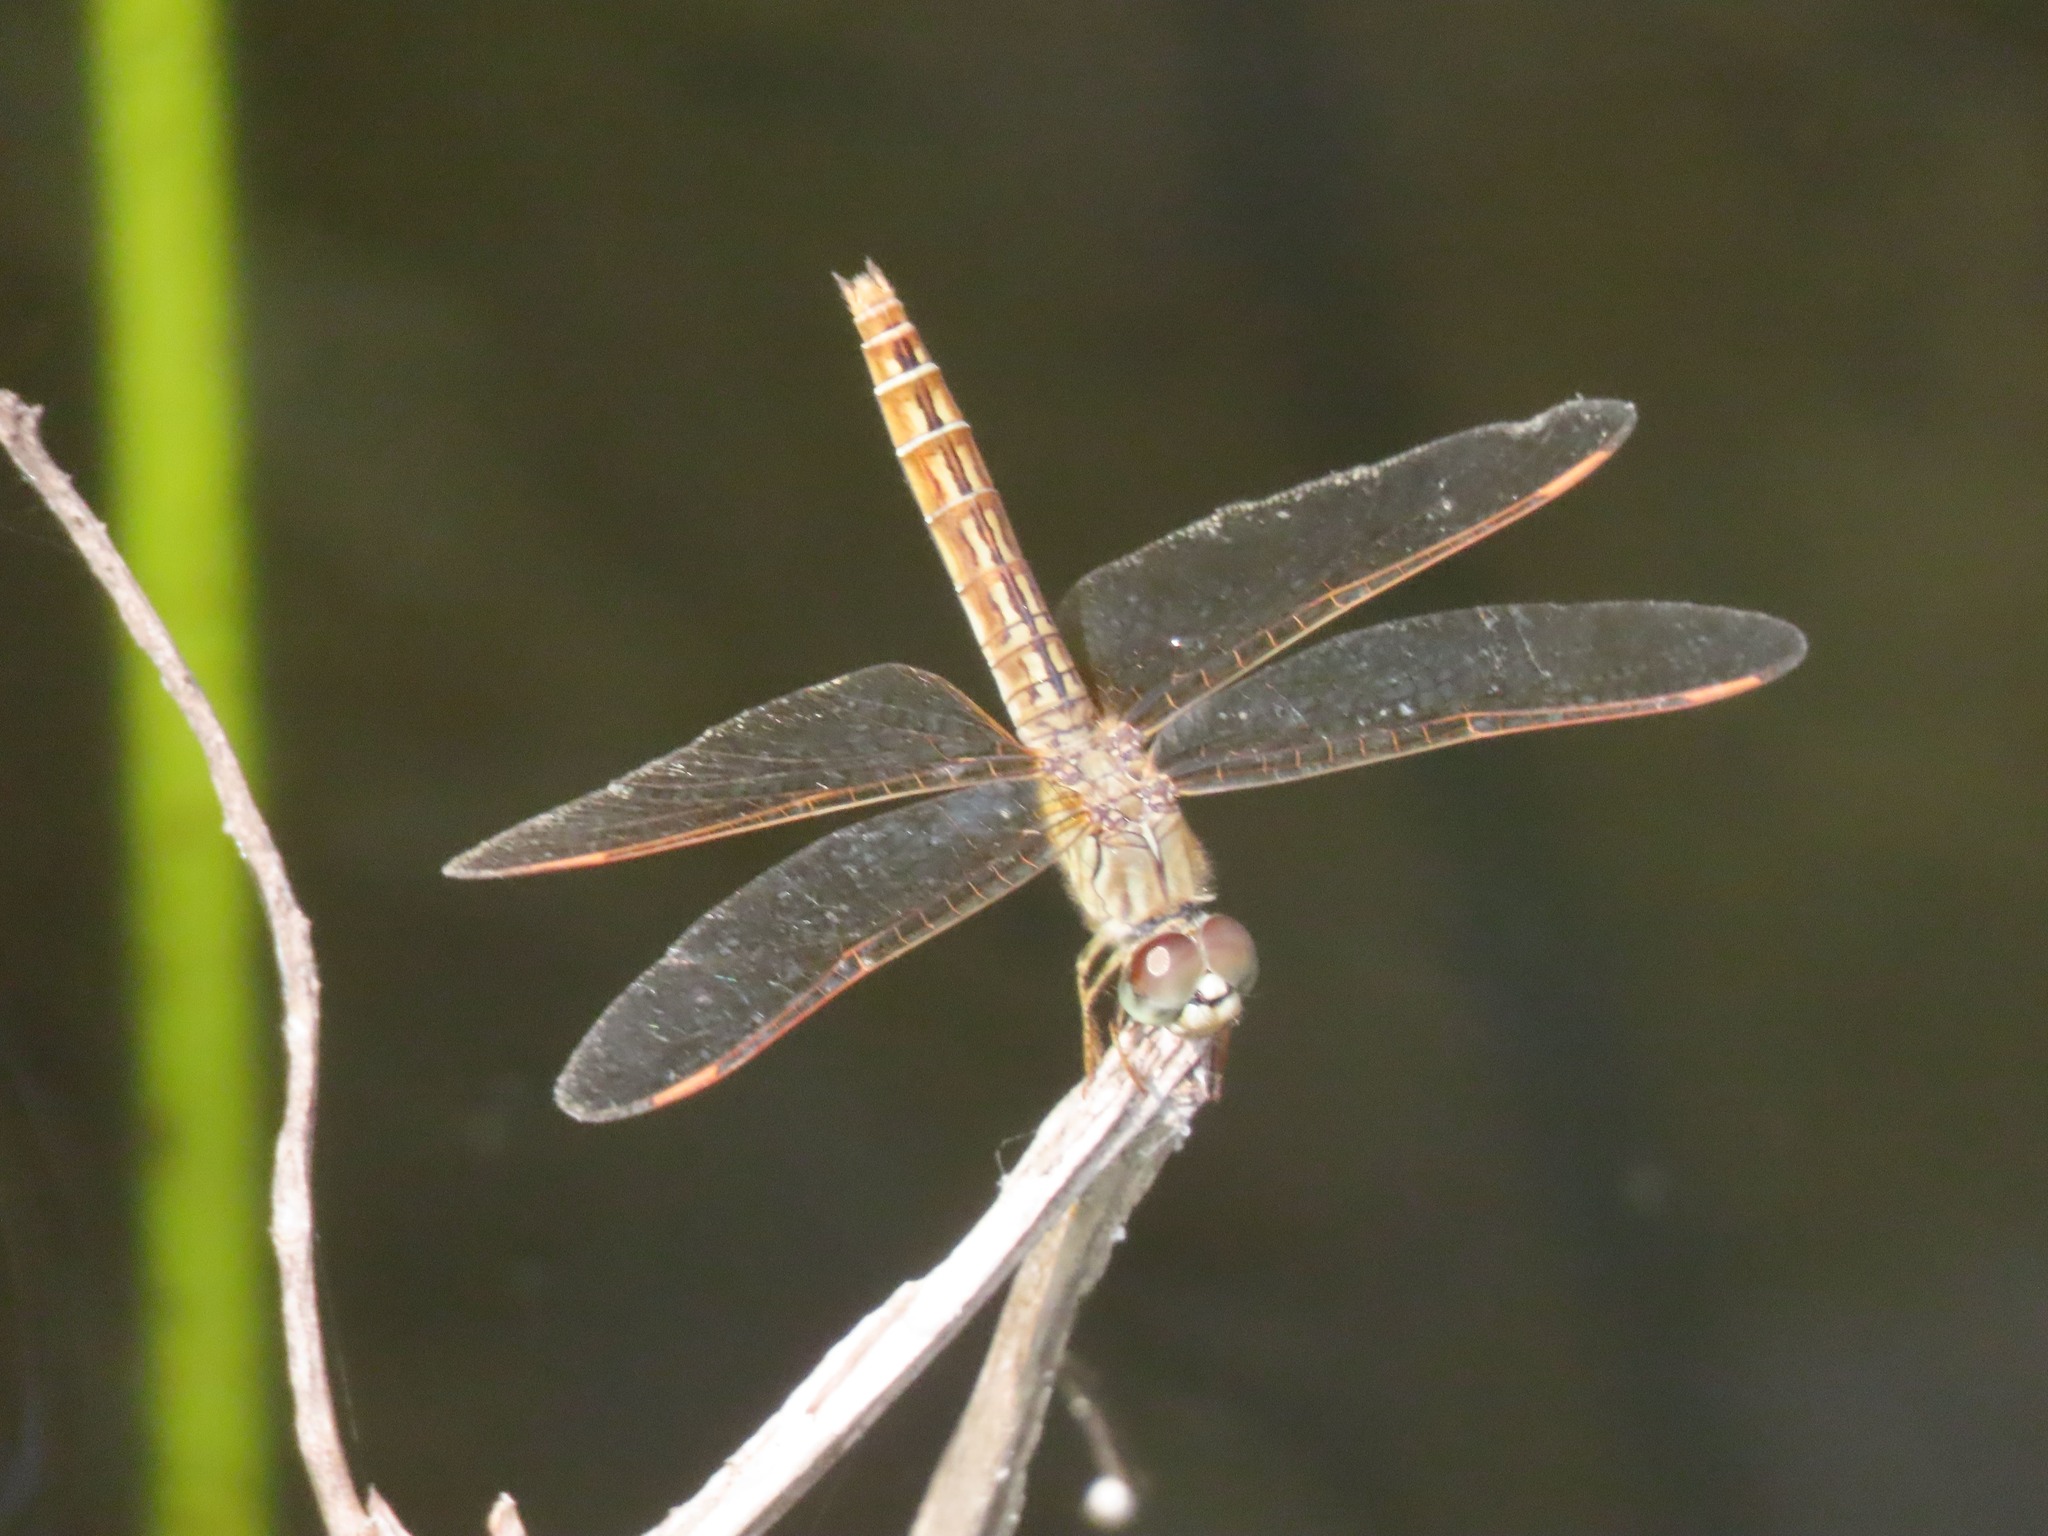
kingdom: Animalia
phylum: Arthropoda
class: Insecta
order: Odonata
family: Libellulidae
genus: Brachythemis
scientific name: Brachythemis contaminata
